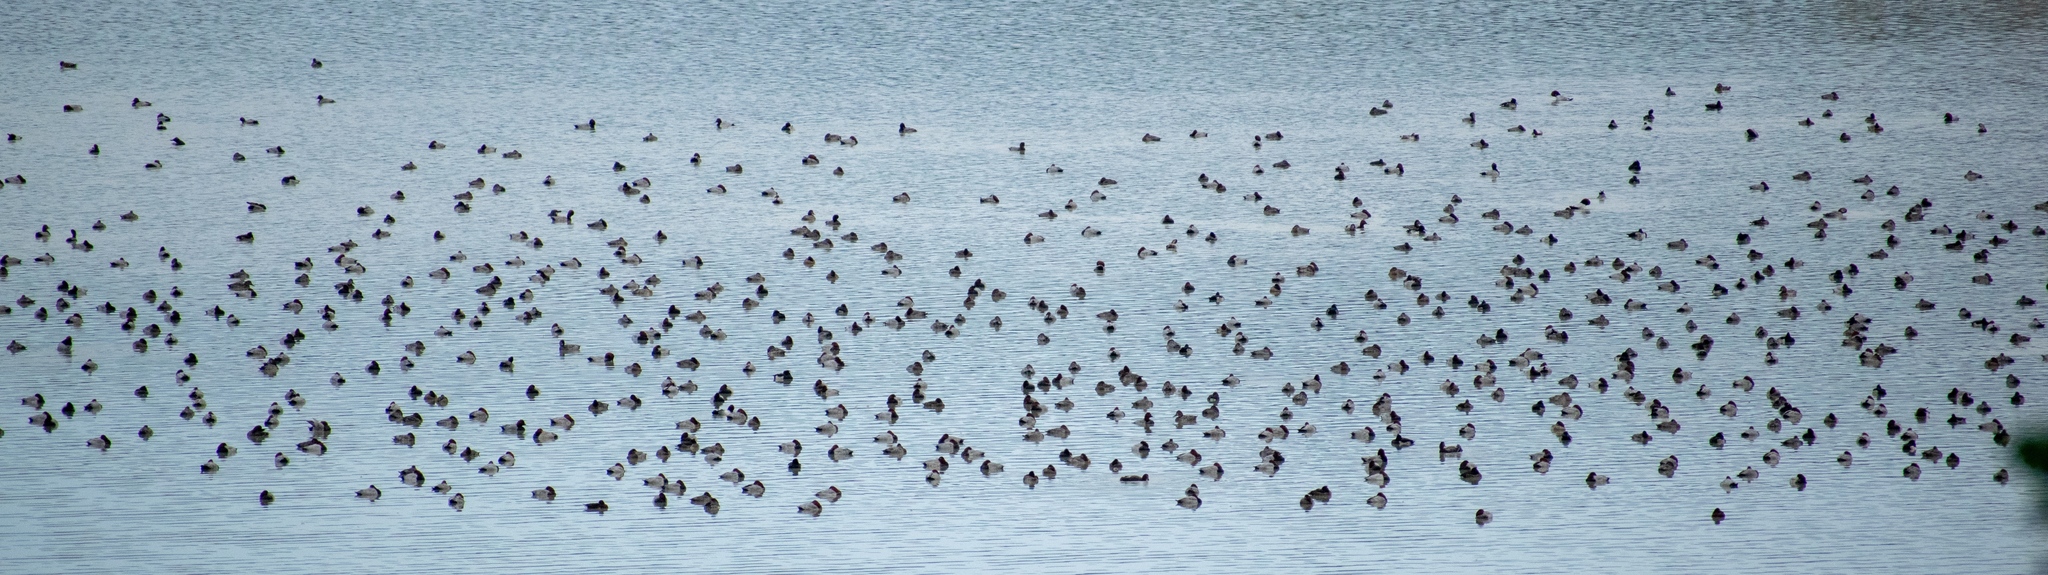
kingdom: Animalia
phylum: Chordata
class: Aves
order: Anseriformes
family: Anatidae
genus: Aythya
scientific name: Aythya ferina
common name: Common pochard
